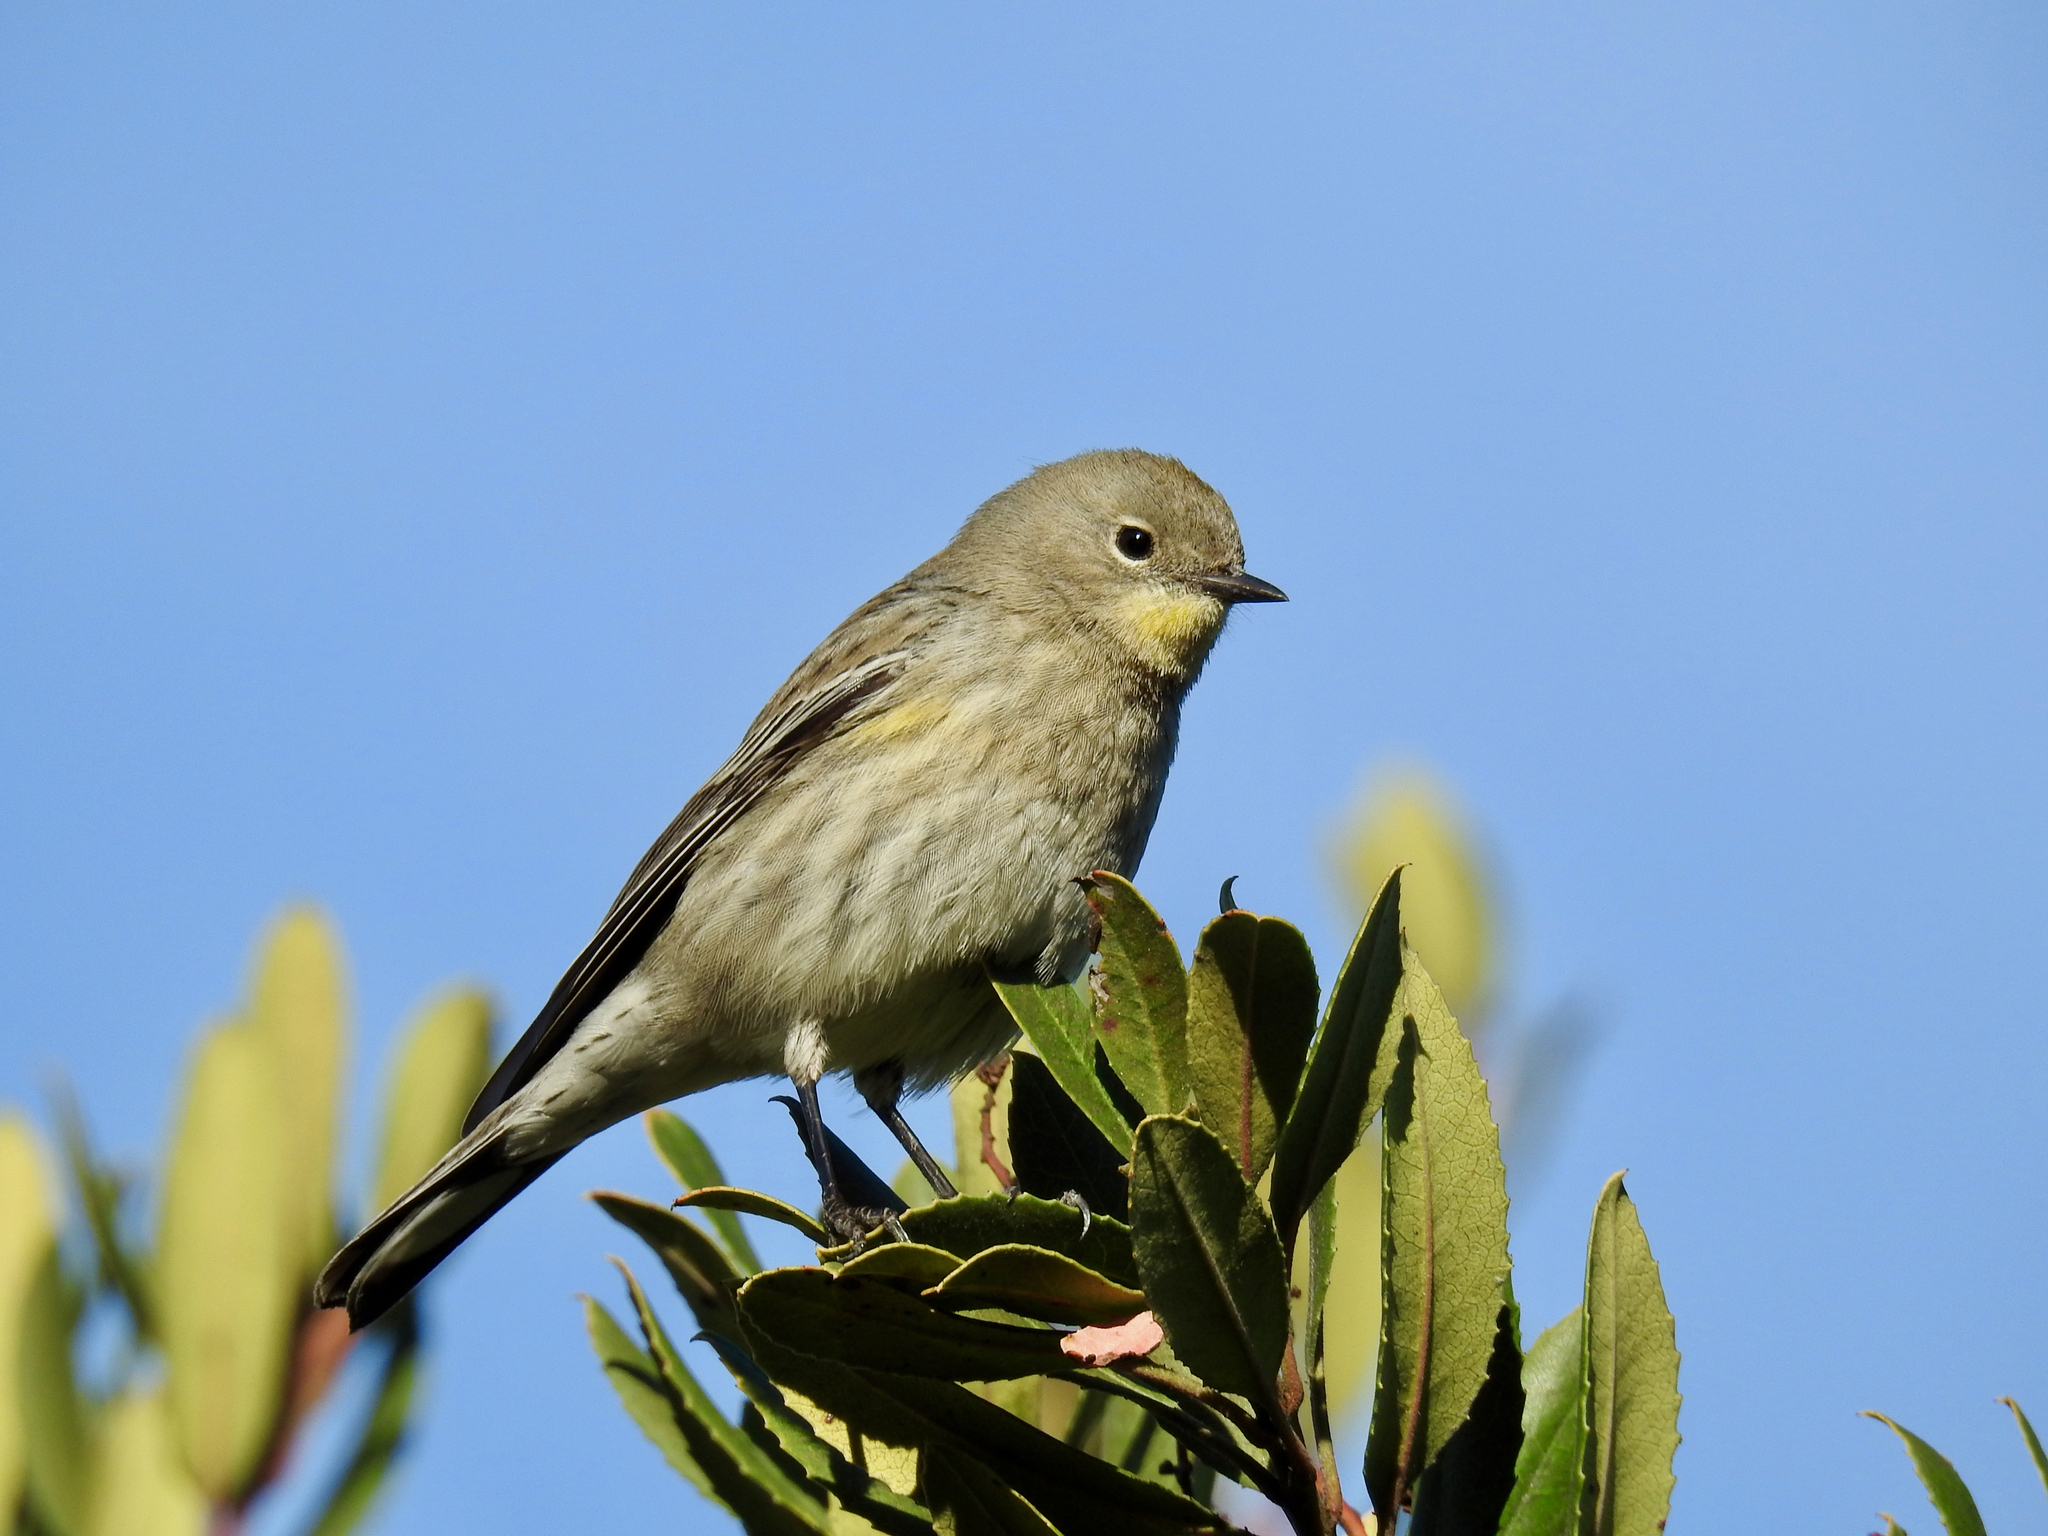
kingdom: Animalia
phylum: Chordata
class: Aves
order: Passeriformes
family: Parulidae
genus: Setophaga
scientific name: Setophaga coronata
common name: Myrtle warbler
